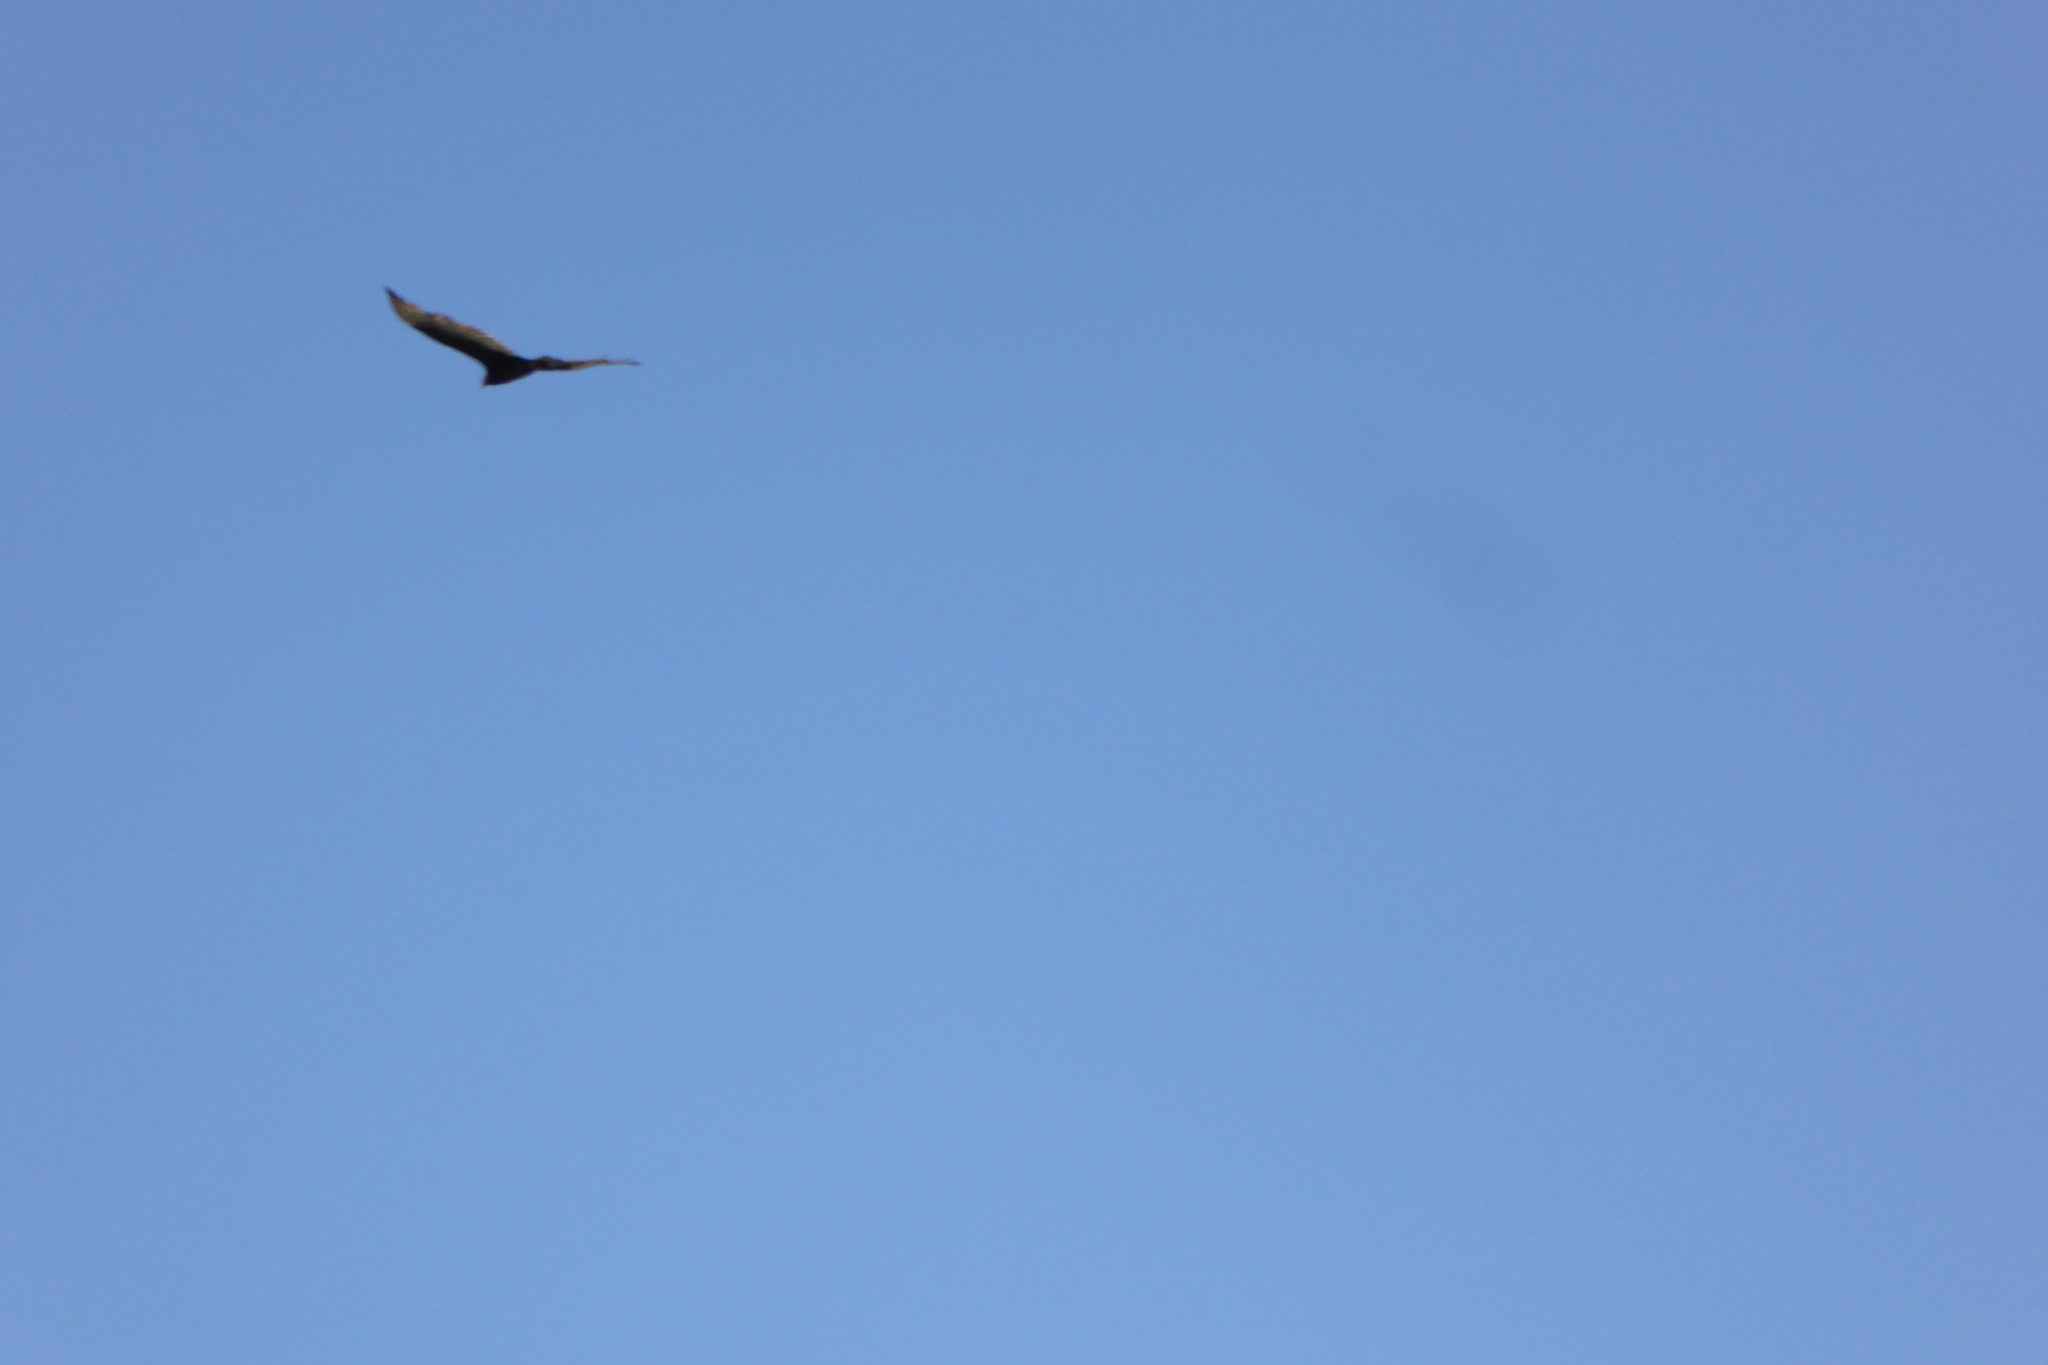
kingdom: Animalia
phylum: Chordata
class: Aves
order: Accipitriformes
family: Cathartidae
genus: Cathartes
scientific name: Cathartes aura
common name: Turkey vulture
